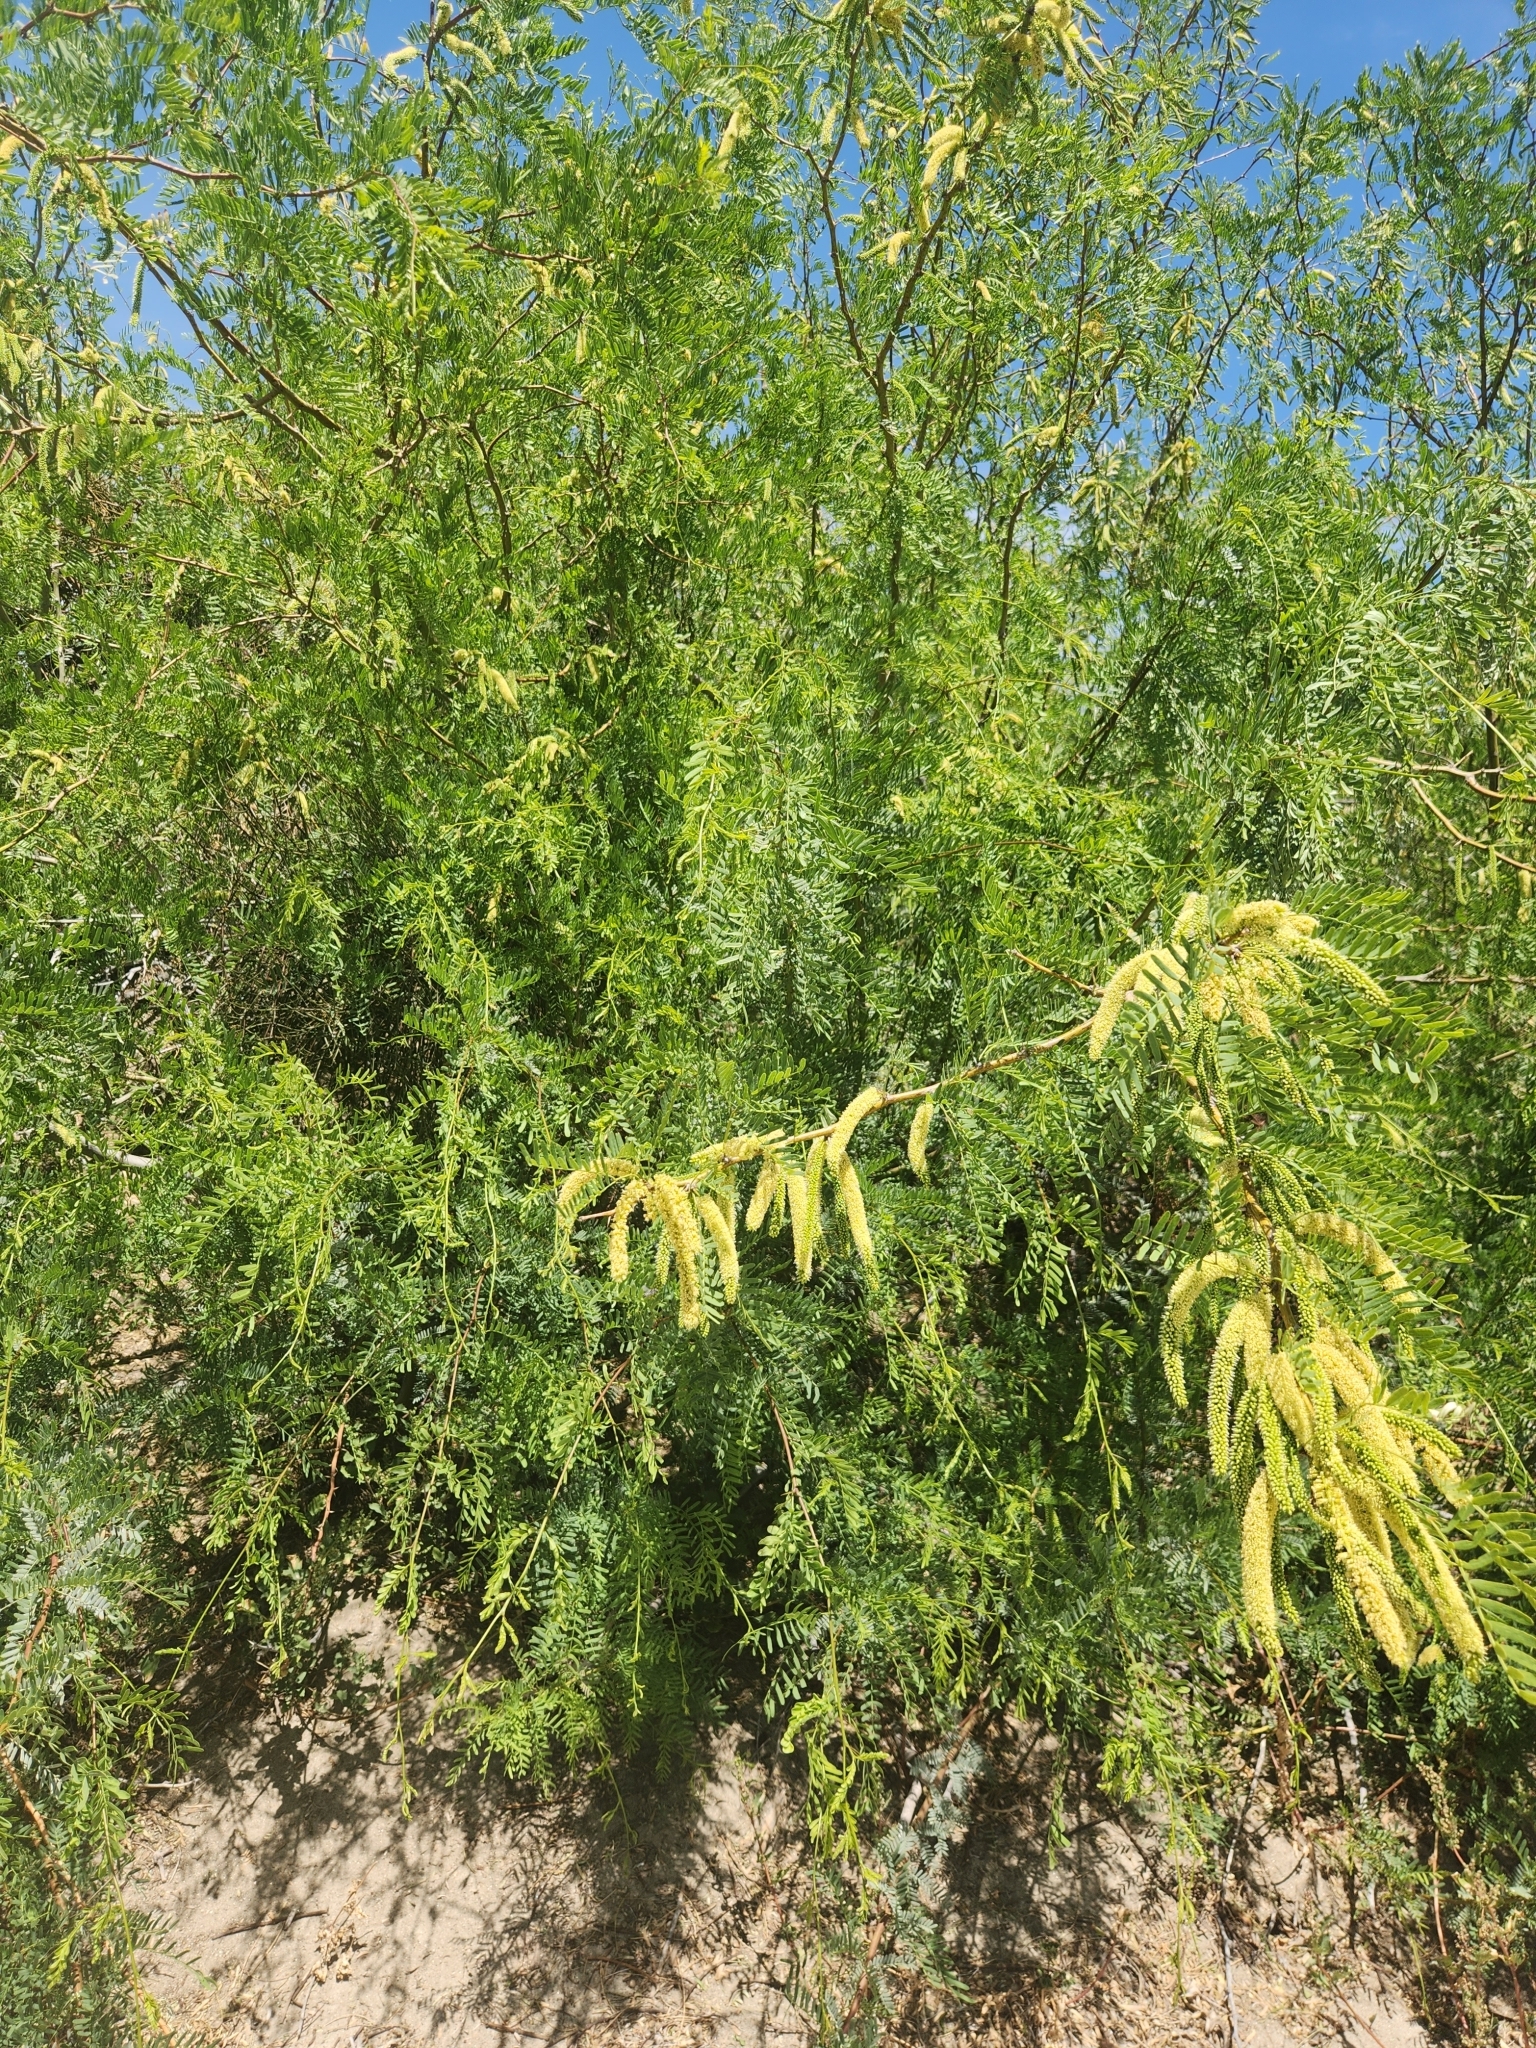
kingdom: Plantae
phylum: Tracheophyta
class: Magnoliopsida
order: Fabales
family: Fabaceae
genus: Prosopis
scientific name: Prosopis pubescens
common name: Screw-bean
